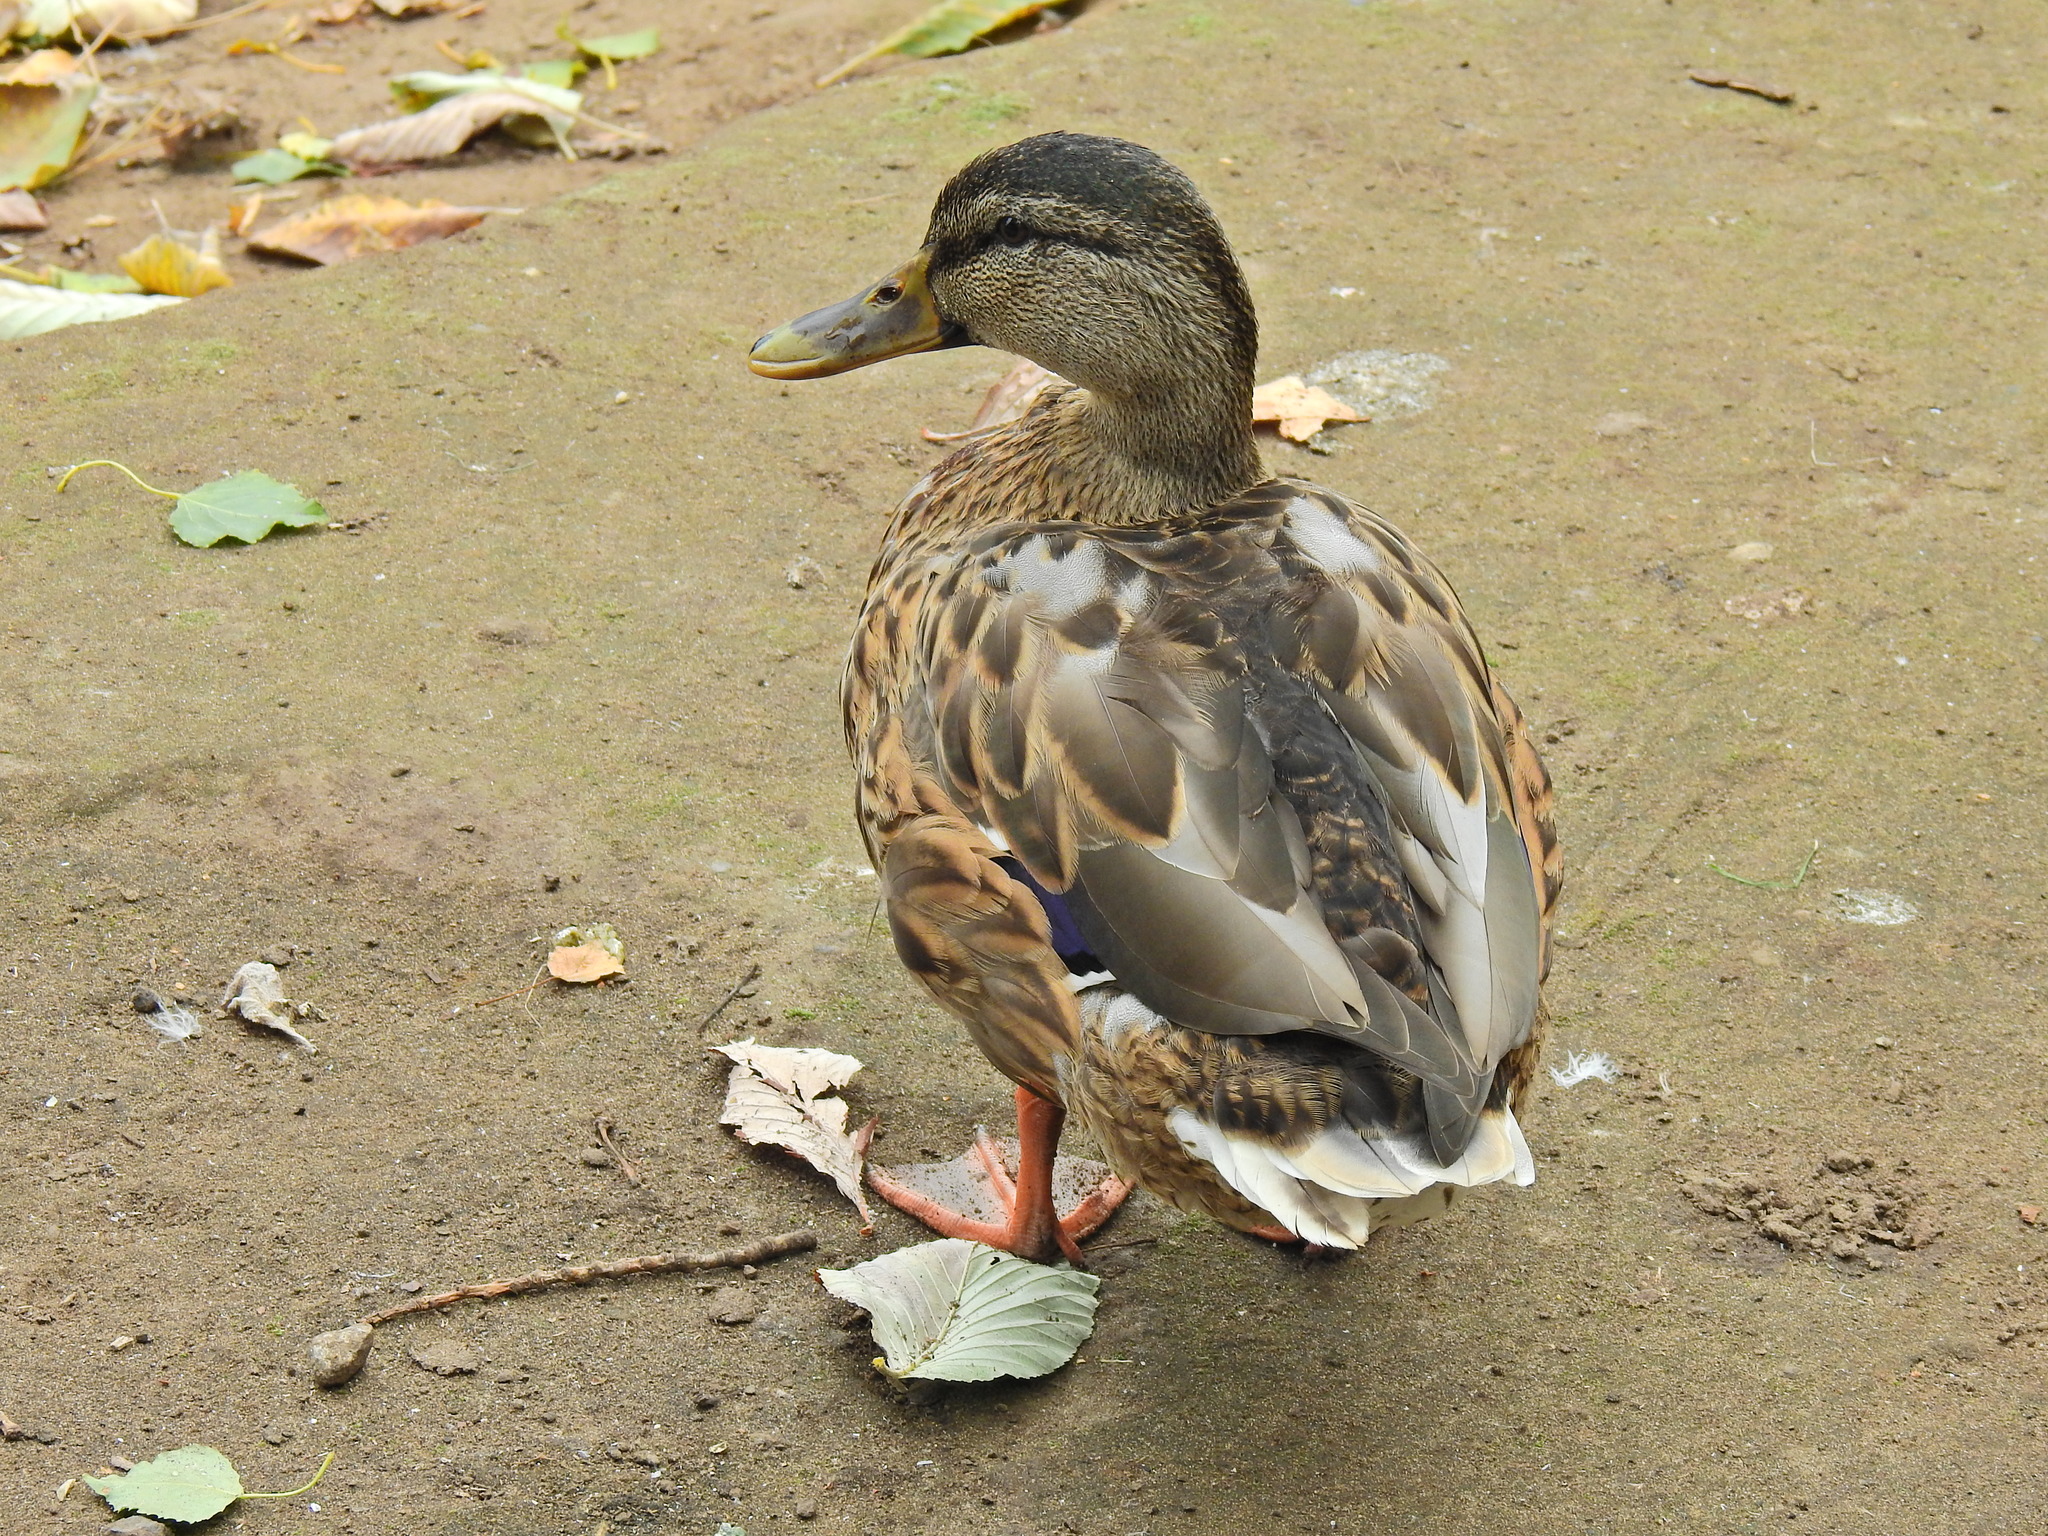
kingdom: Animalia
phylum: Chordata
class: Aves
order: Anseriformes
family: Anatidae
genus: Anas
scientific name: Anas platyrhynchos
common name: Mallard
